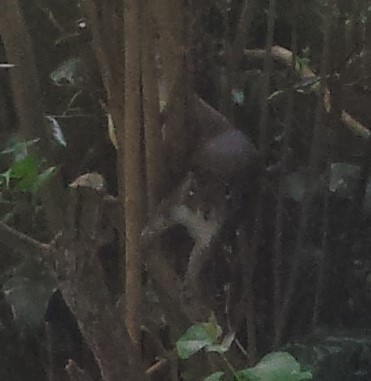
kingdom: Animalia
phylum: Chordata
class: Mammalia
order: Rodentia
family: Sciuridae
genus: Sciurus
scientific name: Sciurus carolinensis
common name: Eastern gray squirrel
